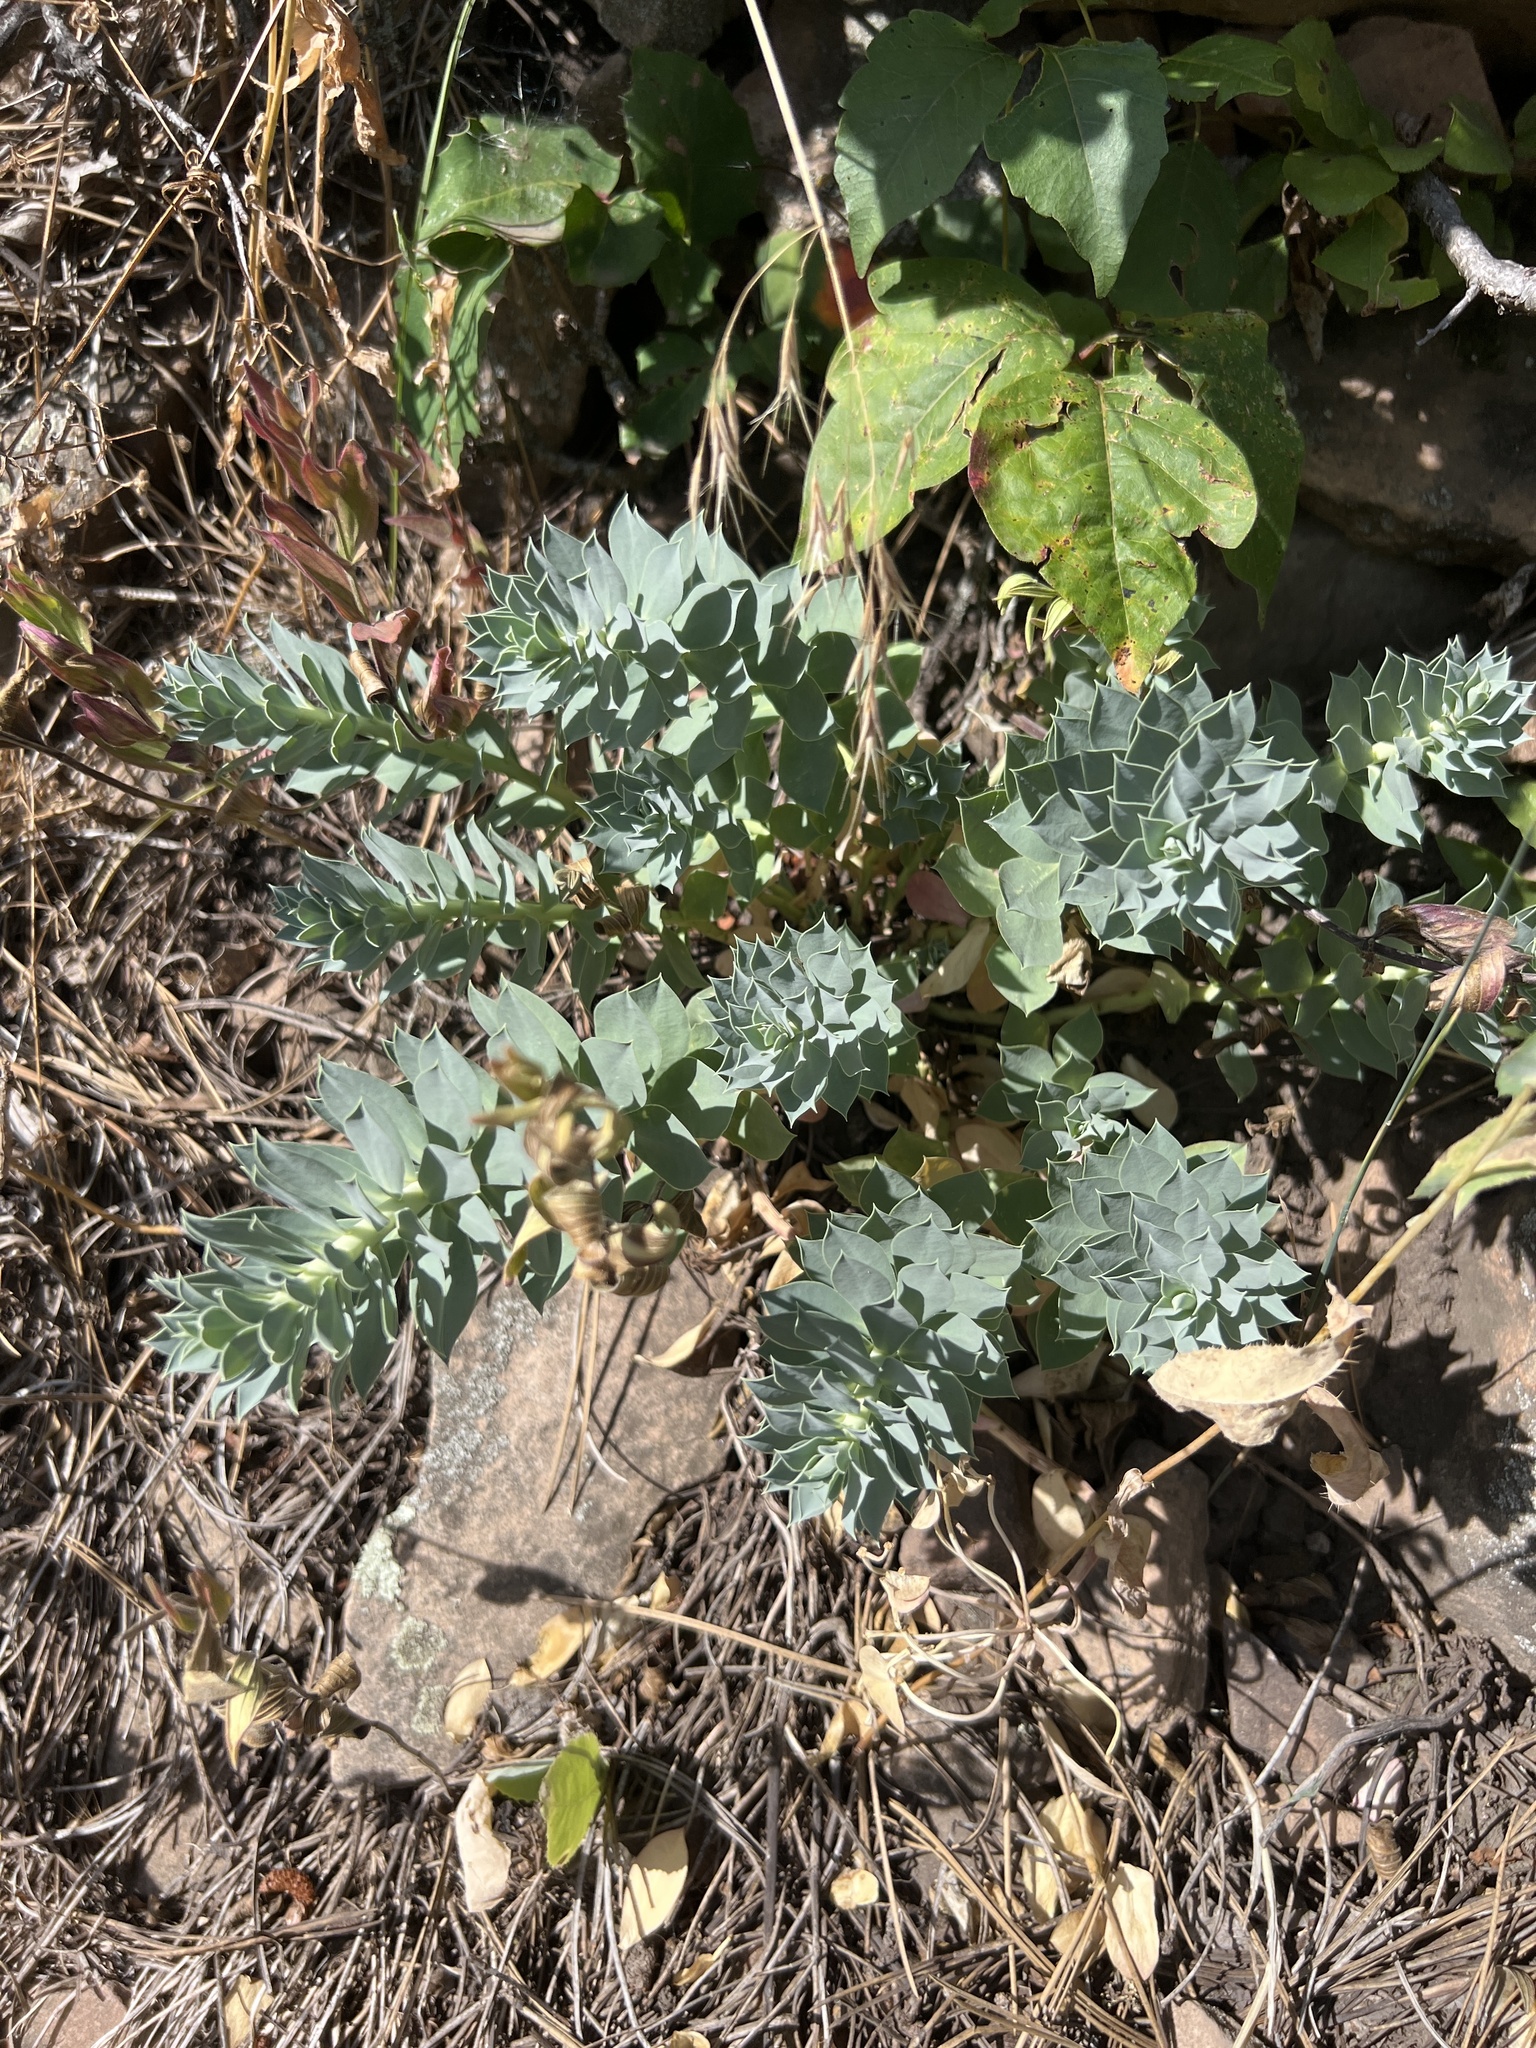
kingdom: Plantae
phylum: Tracheophyta
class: Magnoliopsida
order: Malpighiales
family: Euphorbiaceae
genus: Euphorbia
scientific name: Euphorbia myrsinites
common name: Myrtle spurge
